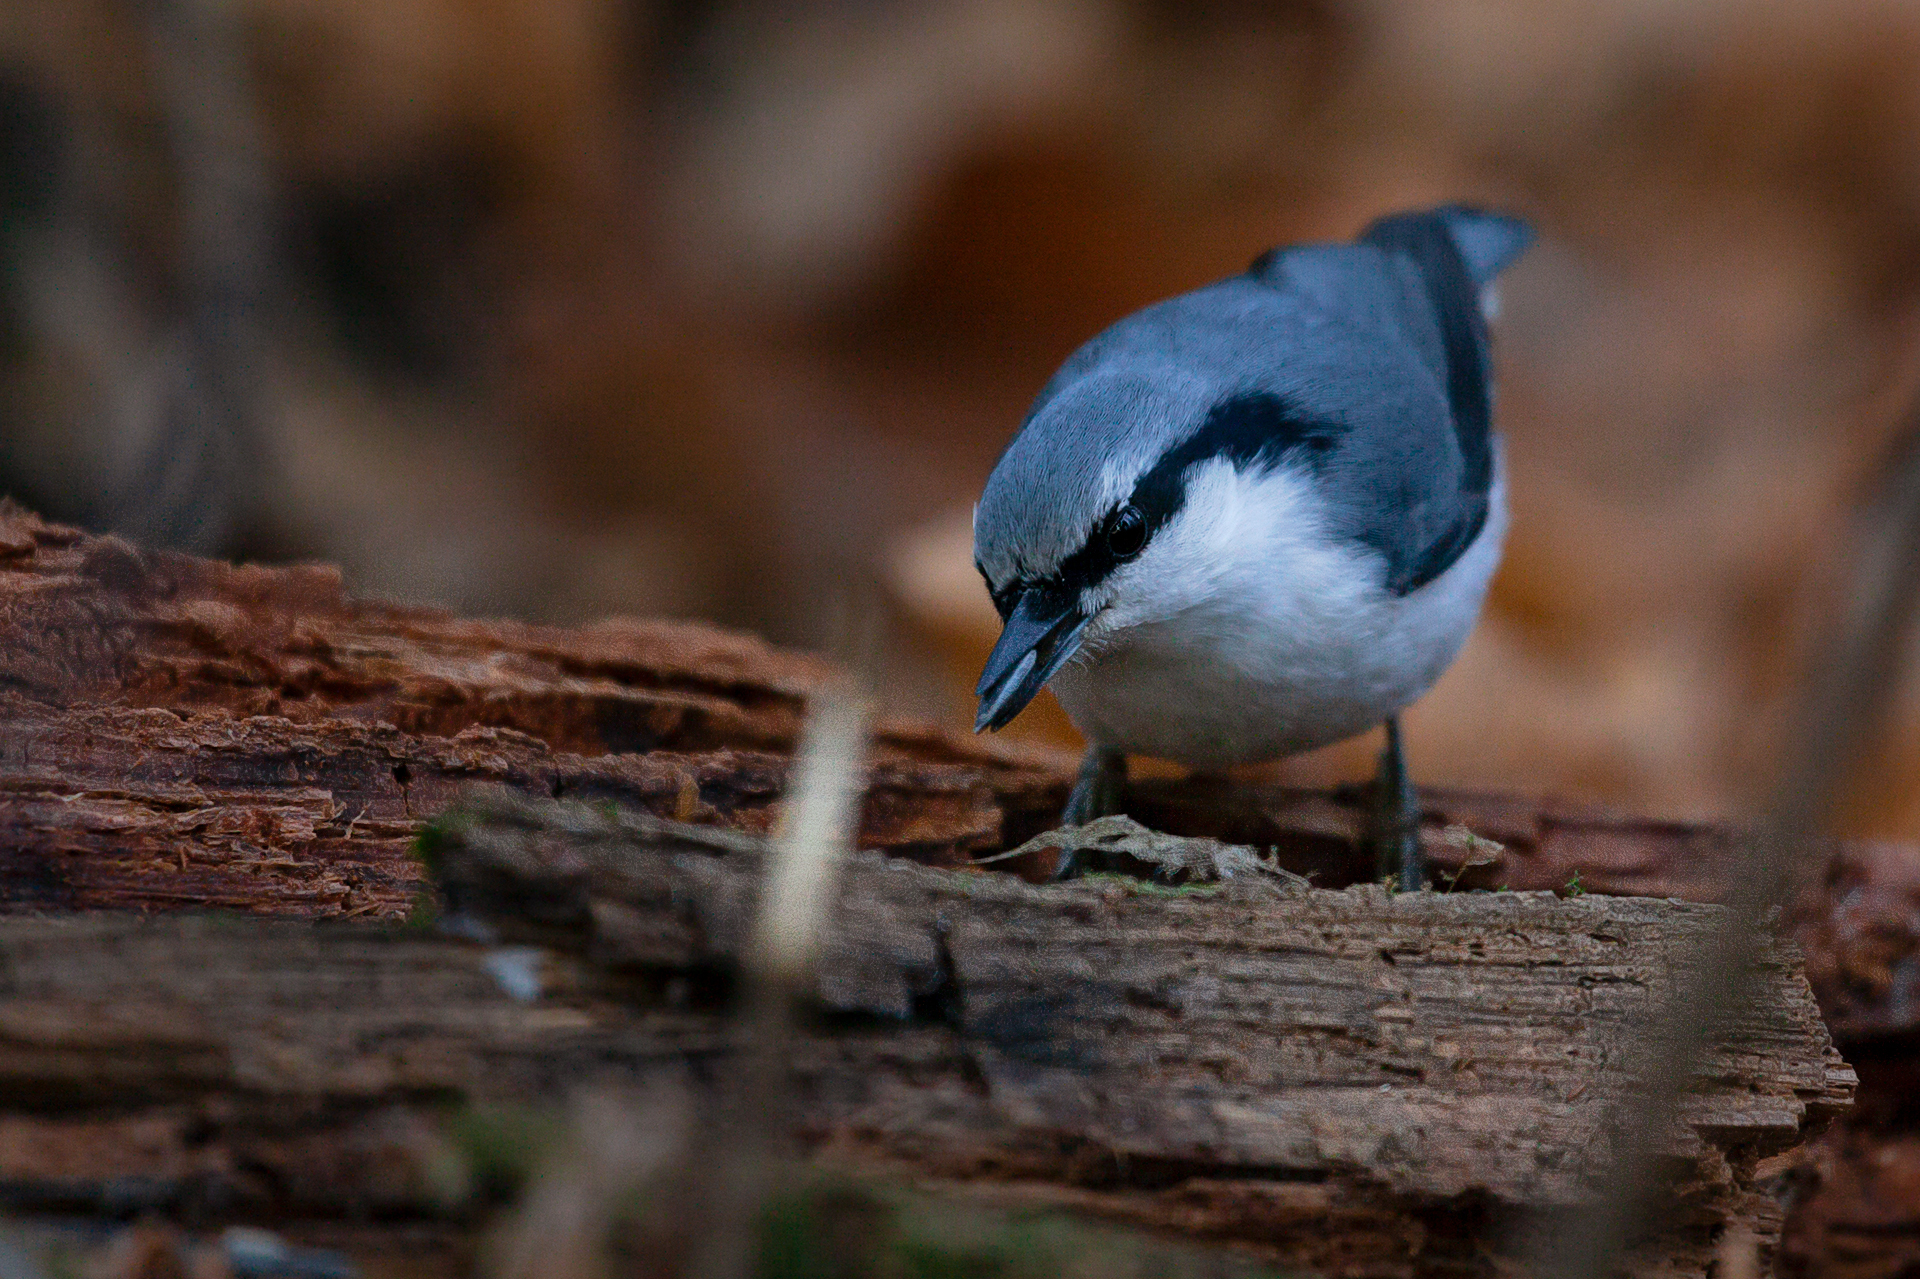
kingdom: Animalia
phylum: Chordata
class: Aves
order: Passeriformes
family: Sittidae
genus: Sitta
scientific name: Sitta europaea
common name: Eurasian nuthatch
